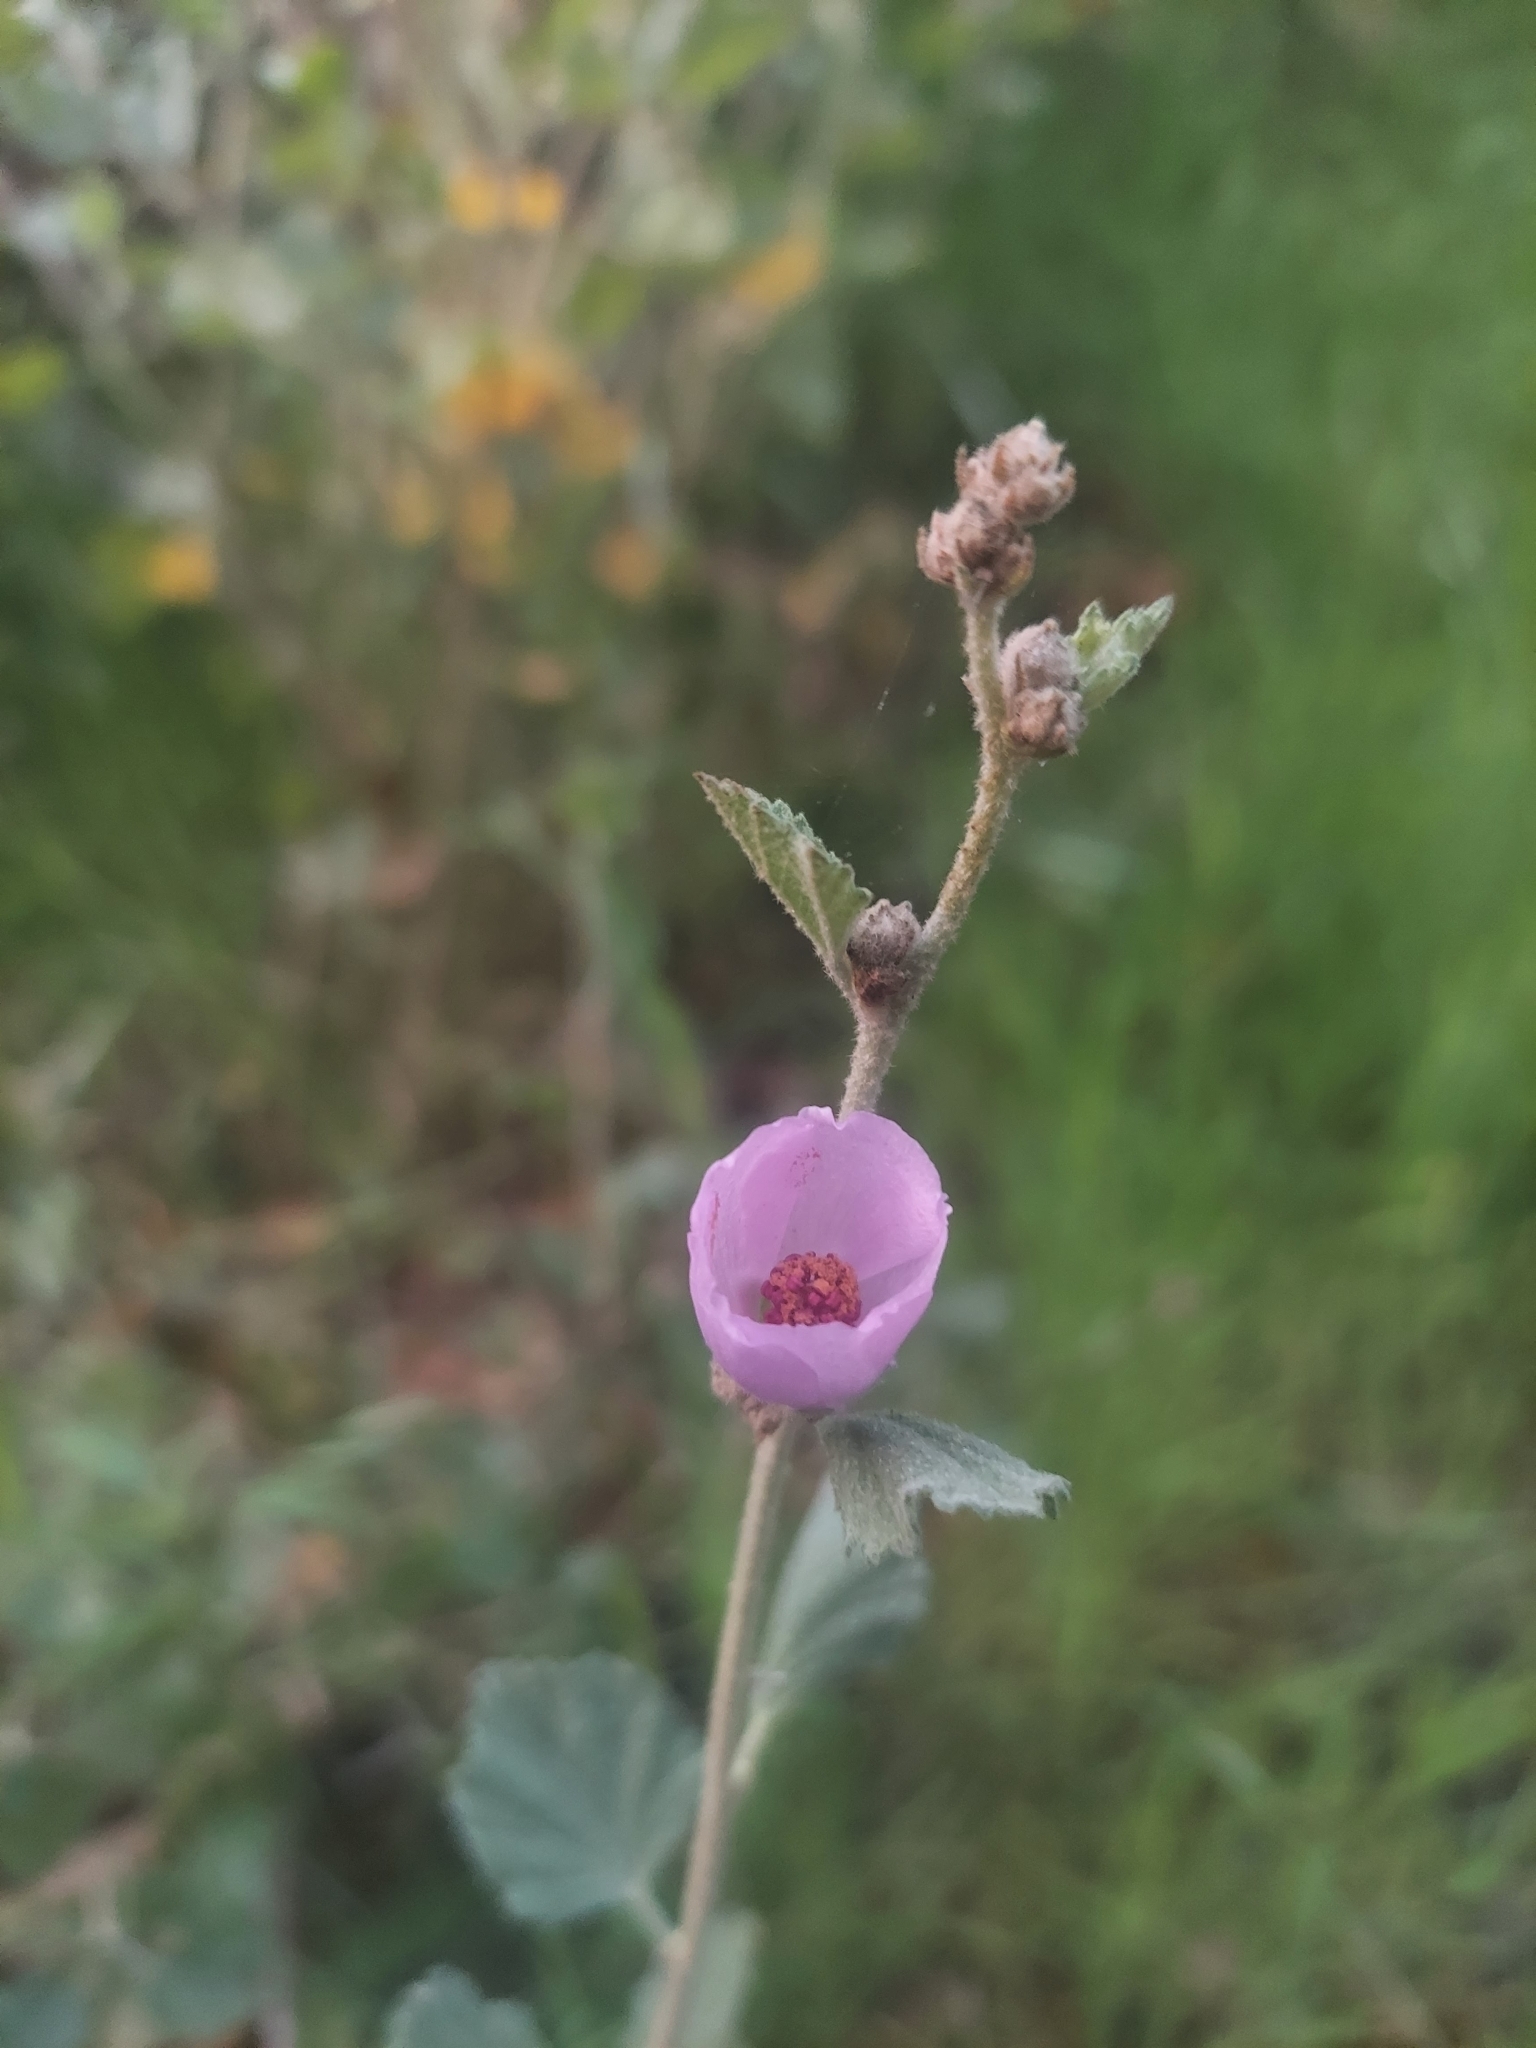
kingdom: Plantae
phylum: Tracheophyta
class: Magnoliopsida
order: Malvales
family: Malvaceae
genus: Malacothamnus
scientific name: Malacothamnus fasciculatus
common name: Sant cruz island bush-mallow
